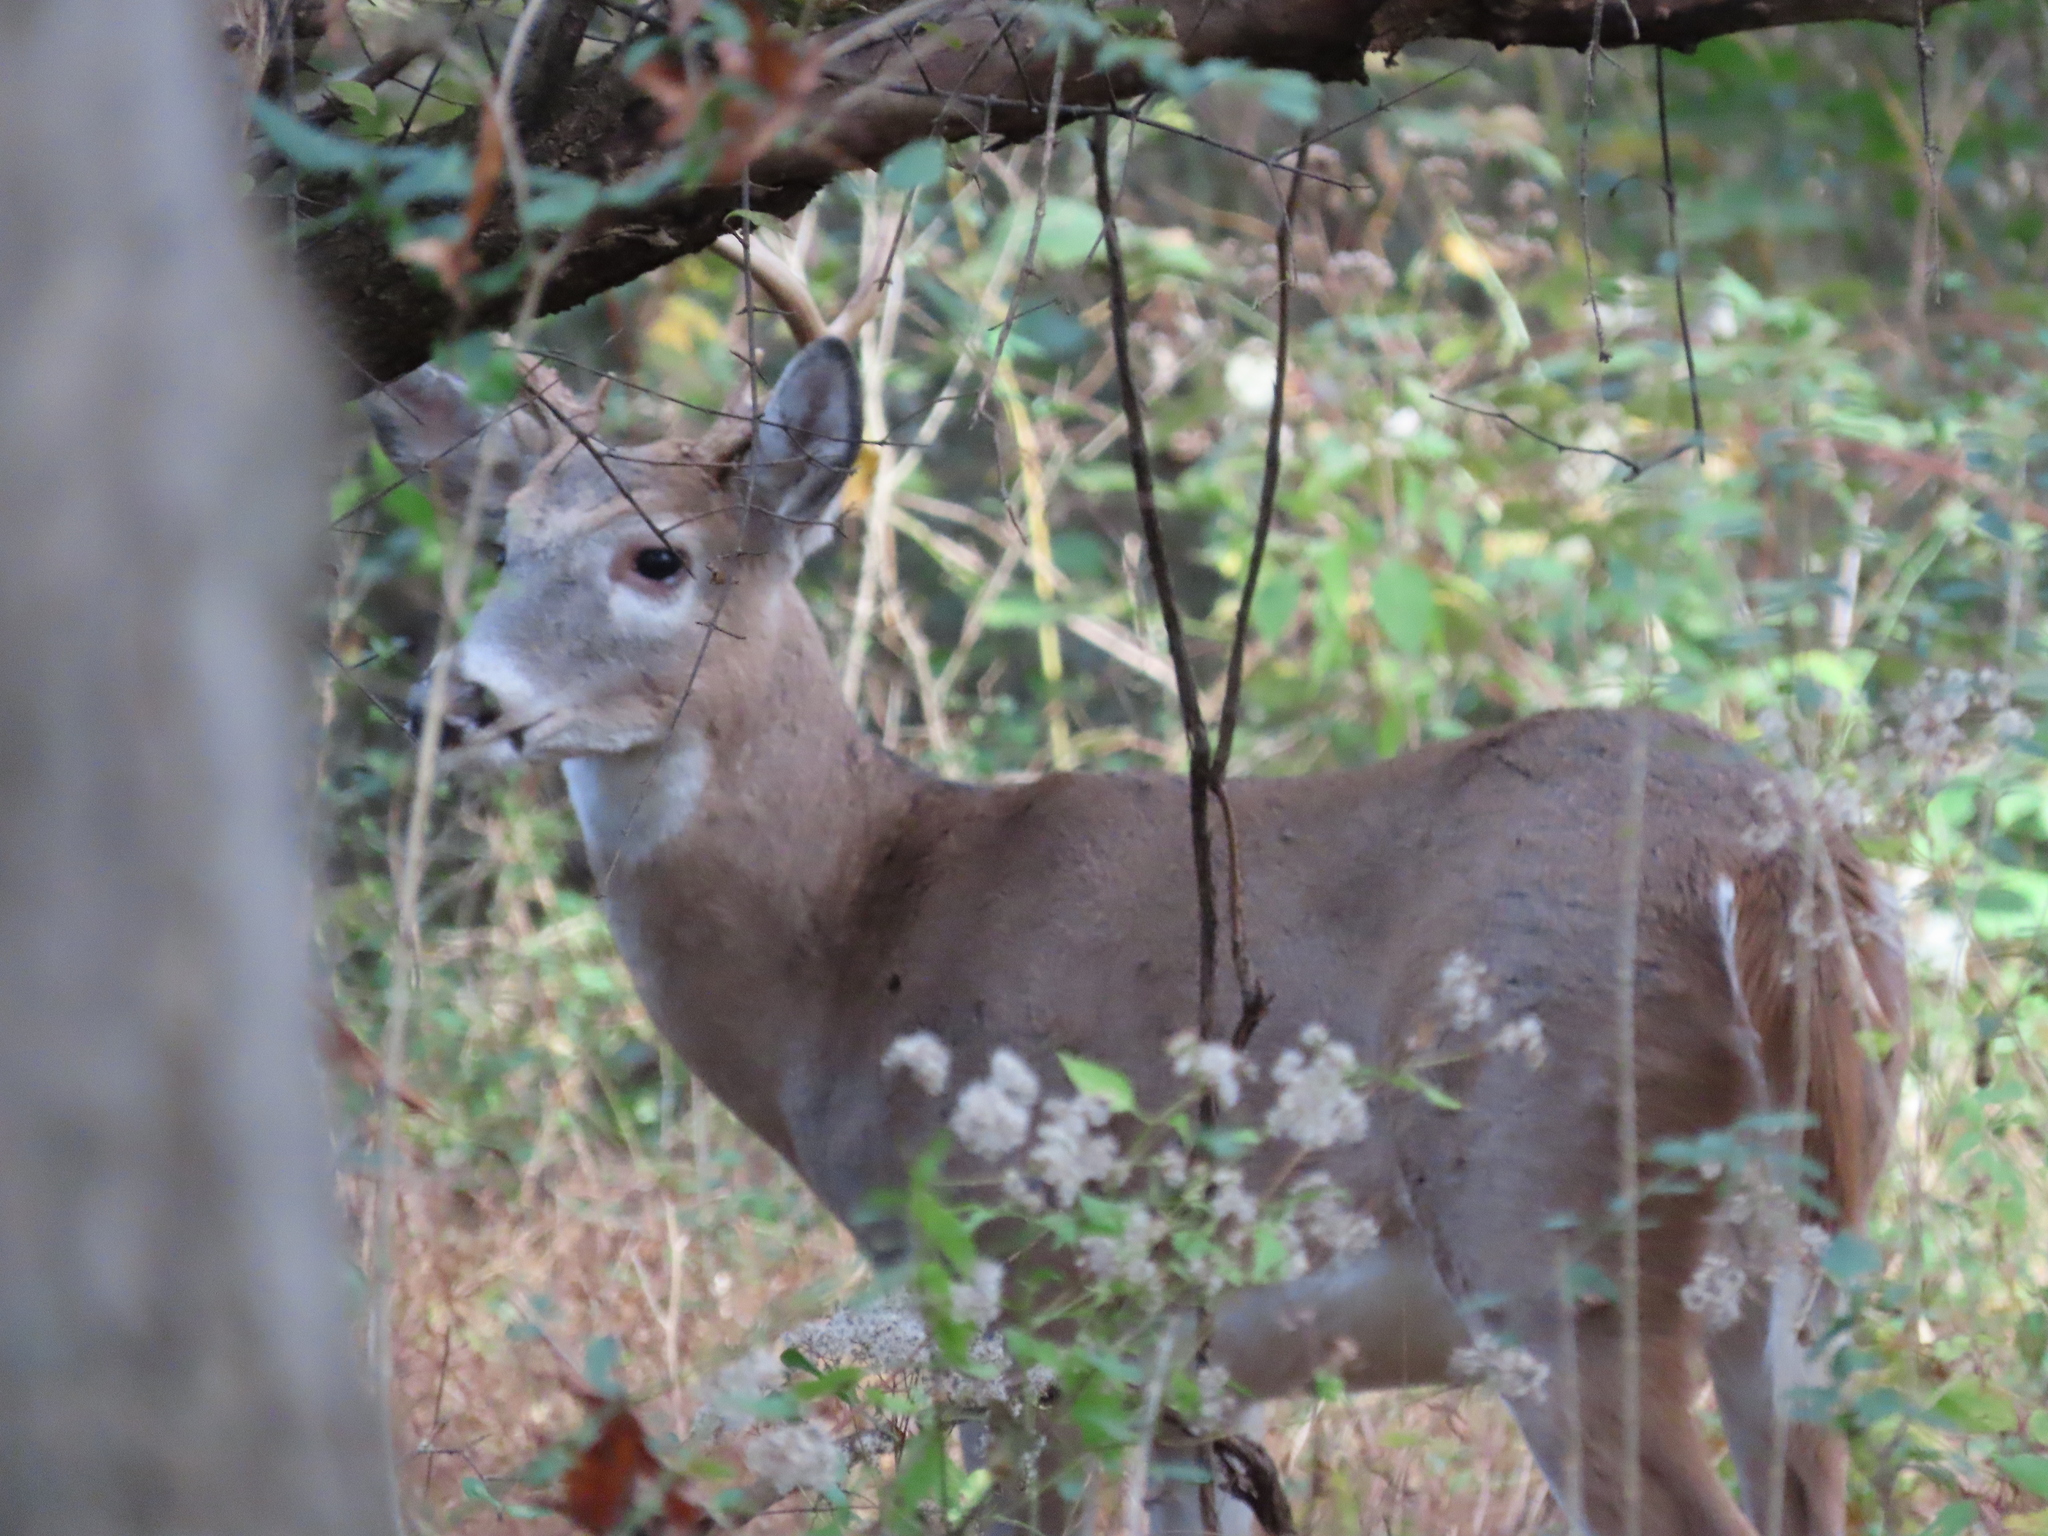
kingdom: Animalia
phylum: Chordata
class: Mammalia
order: Artiodactyla
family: Cervidae
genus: Odocoileus
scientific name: Odocoileus virginianus
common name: White-tailed deer
